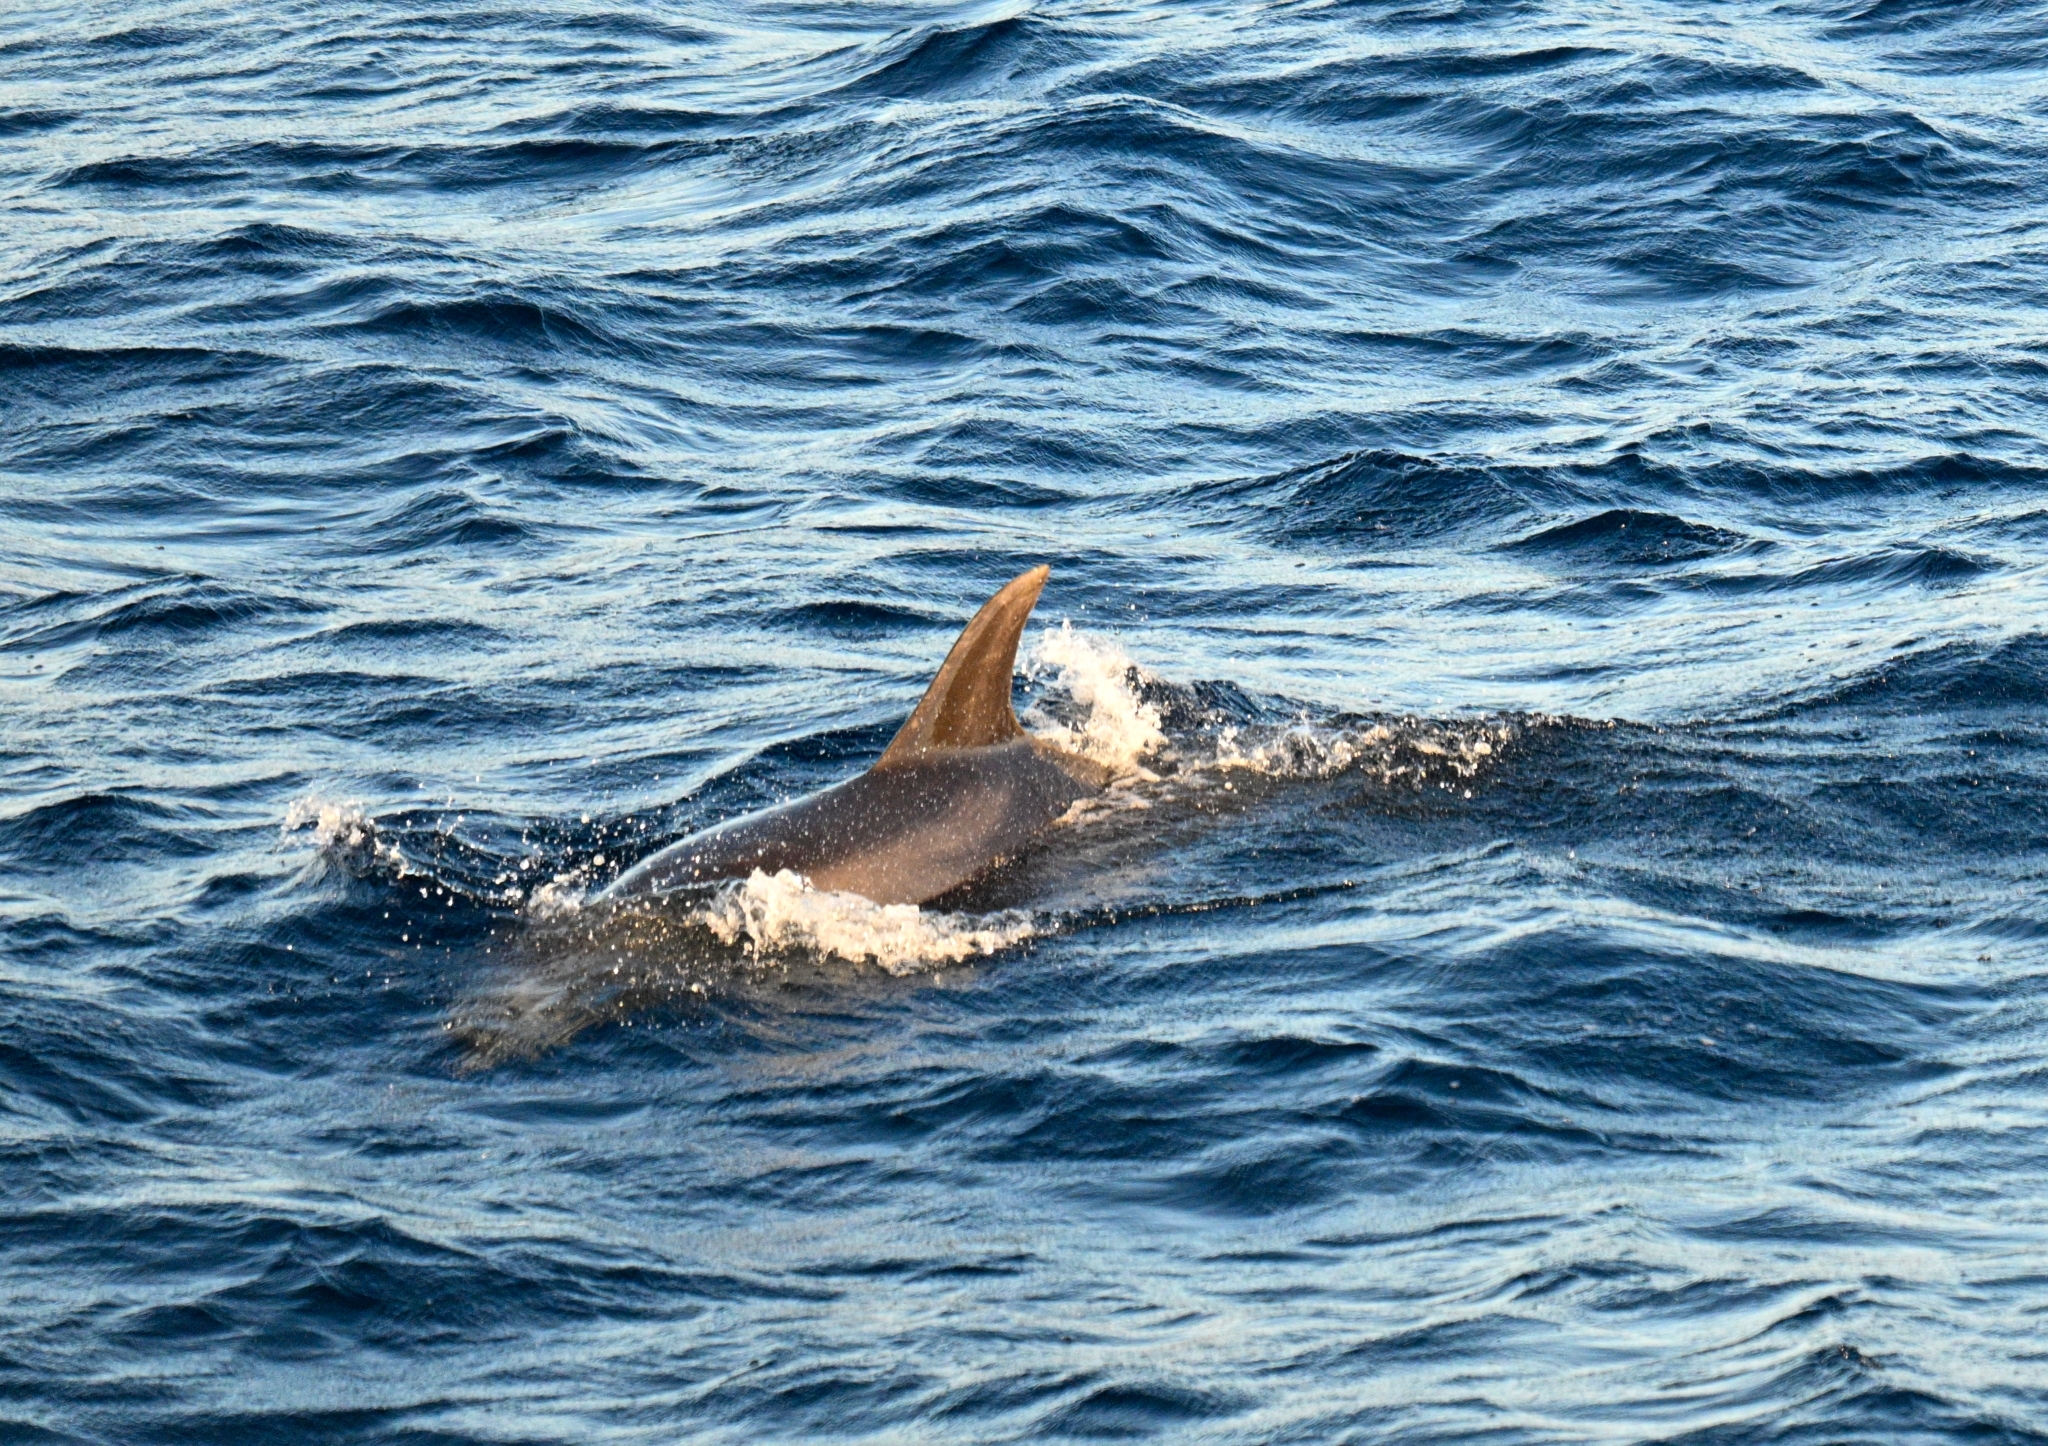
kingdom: Animalia
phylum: Chordata
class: Mammalia
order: Cetacea
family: Delphinidae
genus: Tursiops
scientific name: Tursiops truncatus
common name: Bottlenose dolphin
